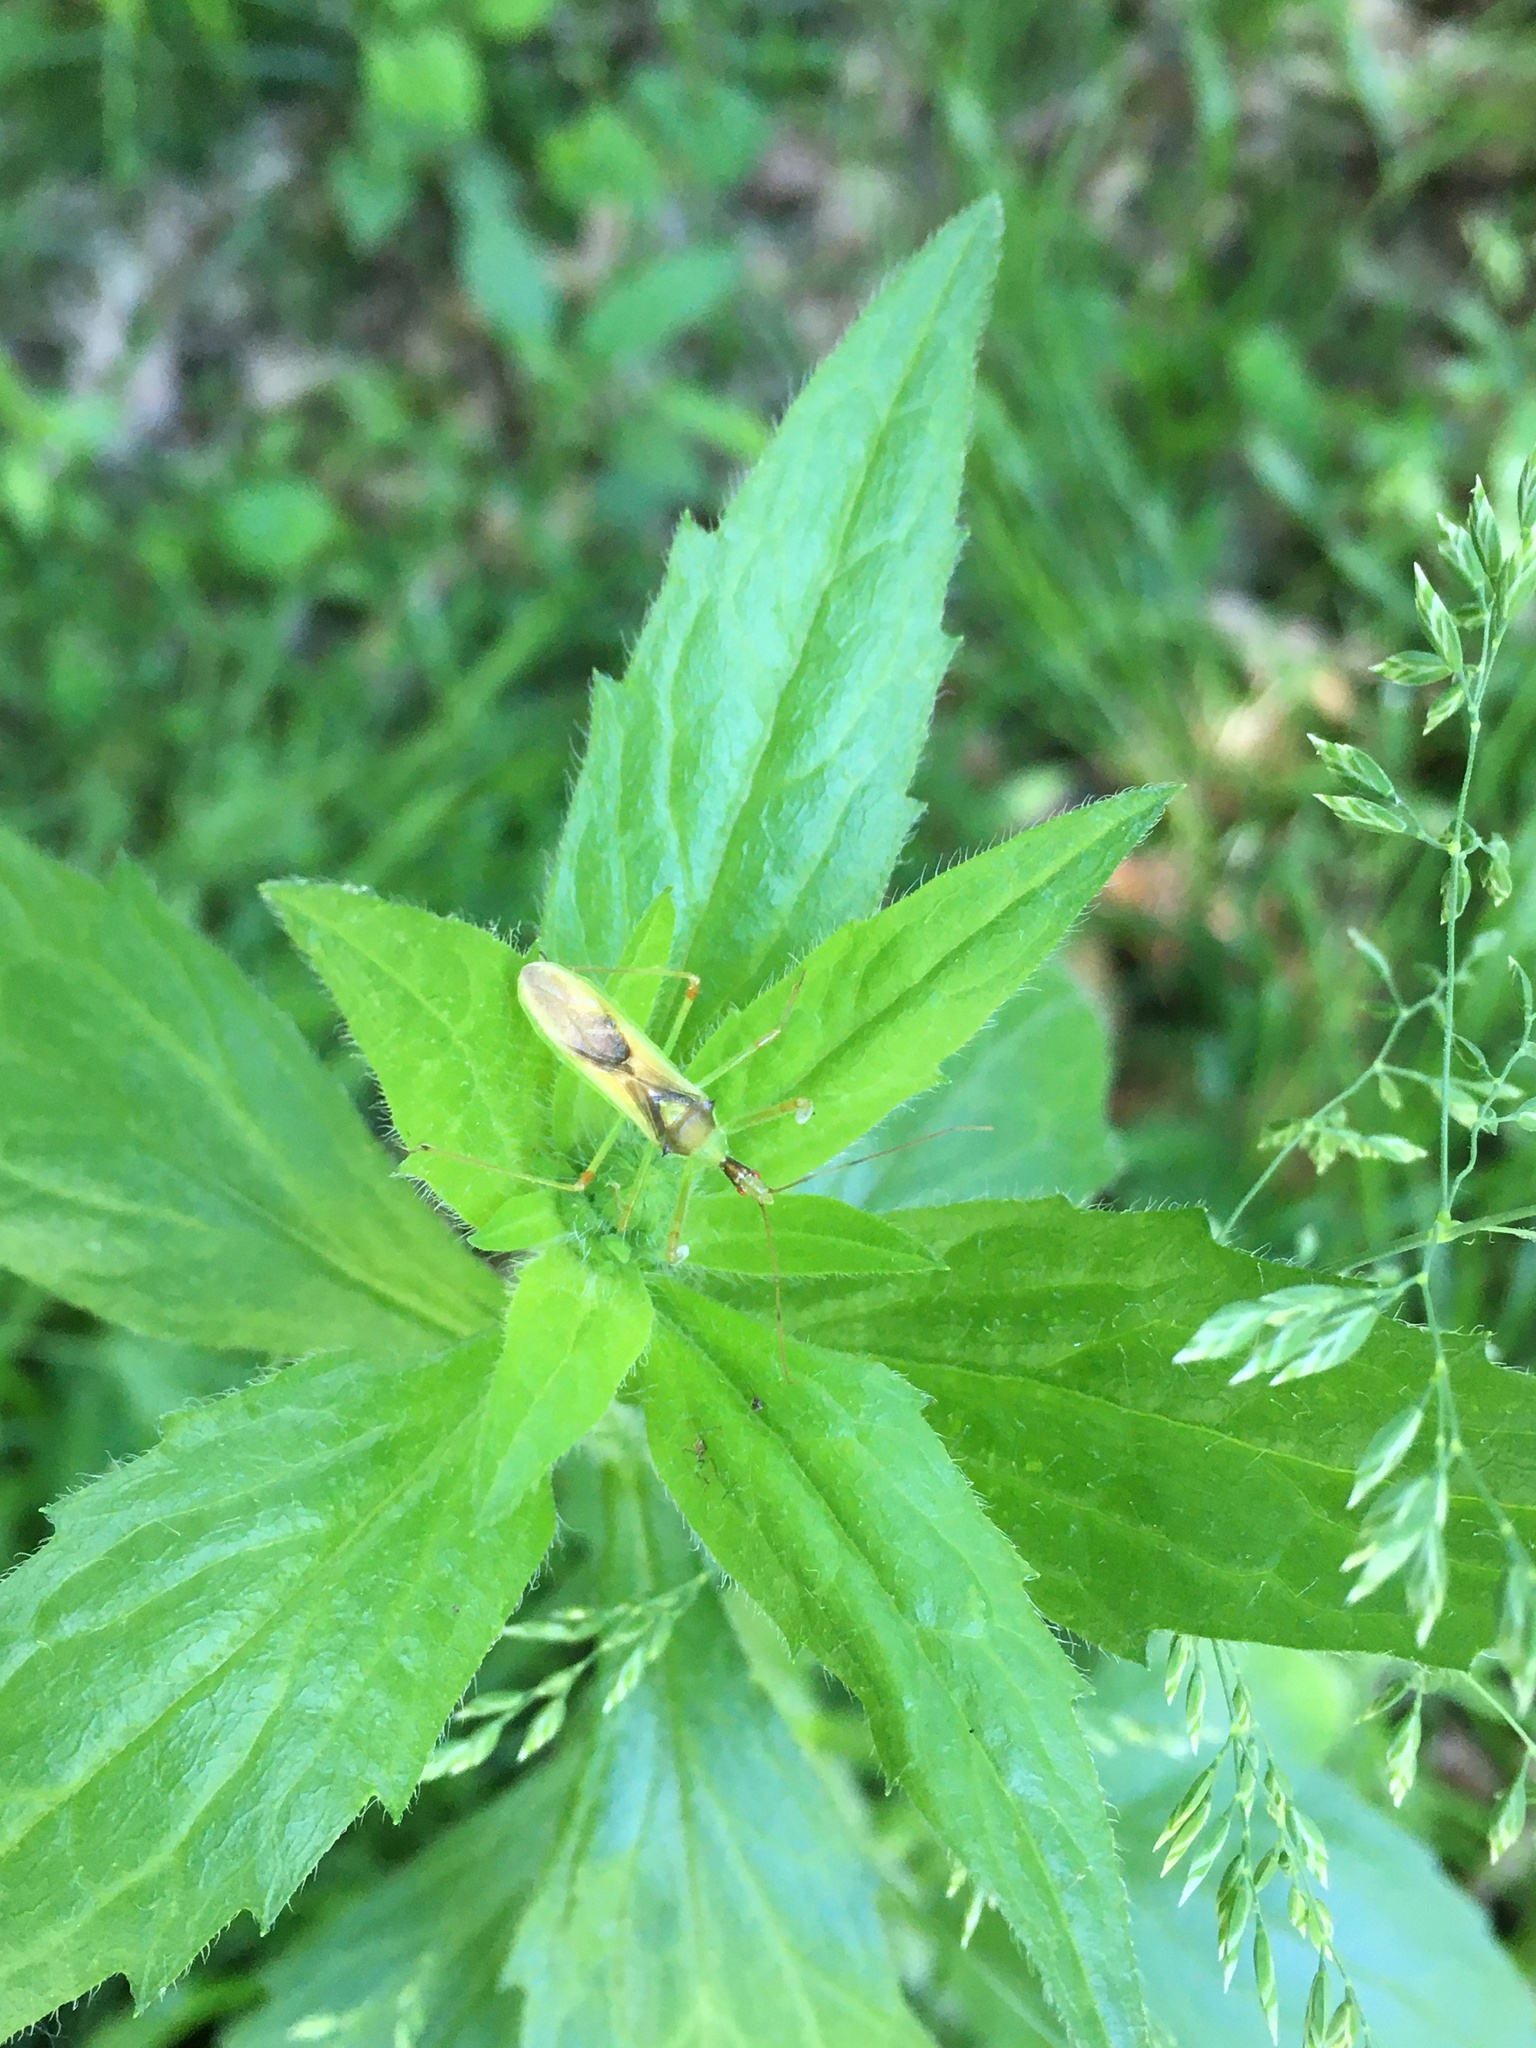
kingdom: Animalia
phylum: Arthropoda
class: Insecta
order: Hemiptera
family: Reduviidae
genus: Zelus
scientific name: Zelus luridus
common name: Pale green assassin bug
